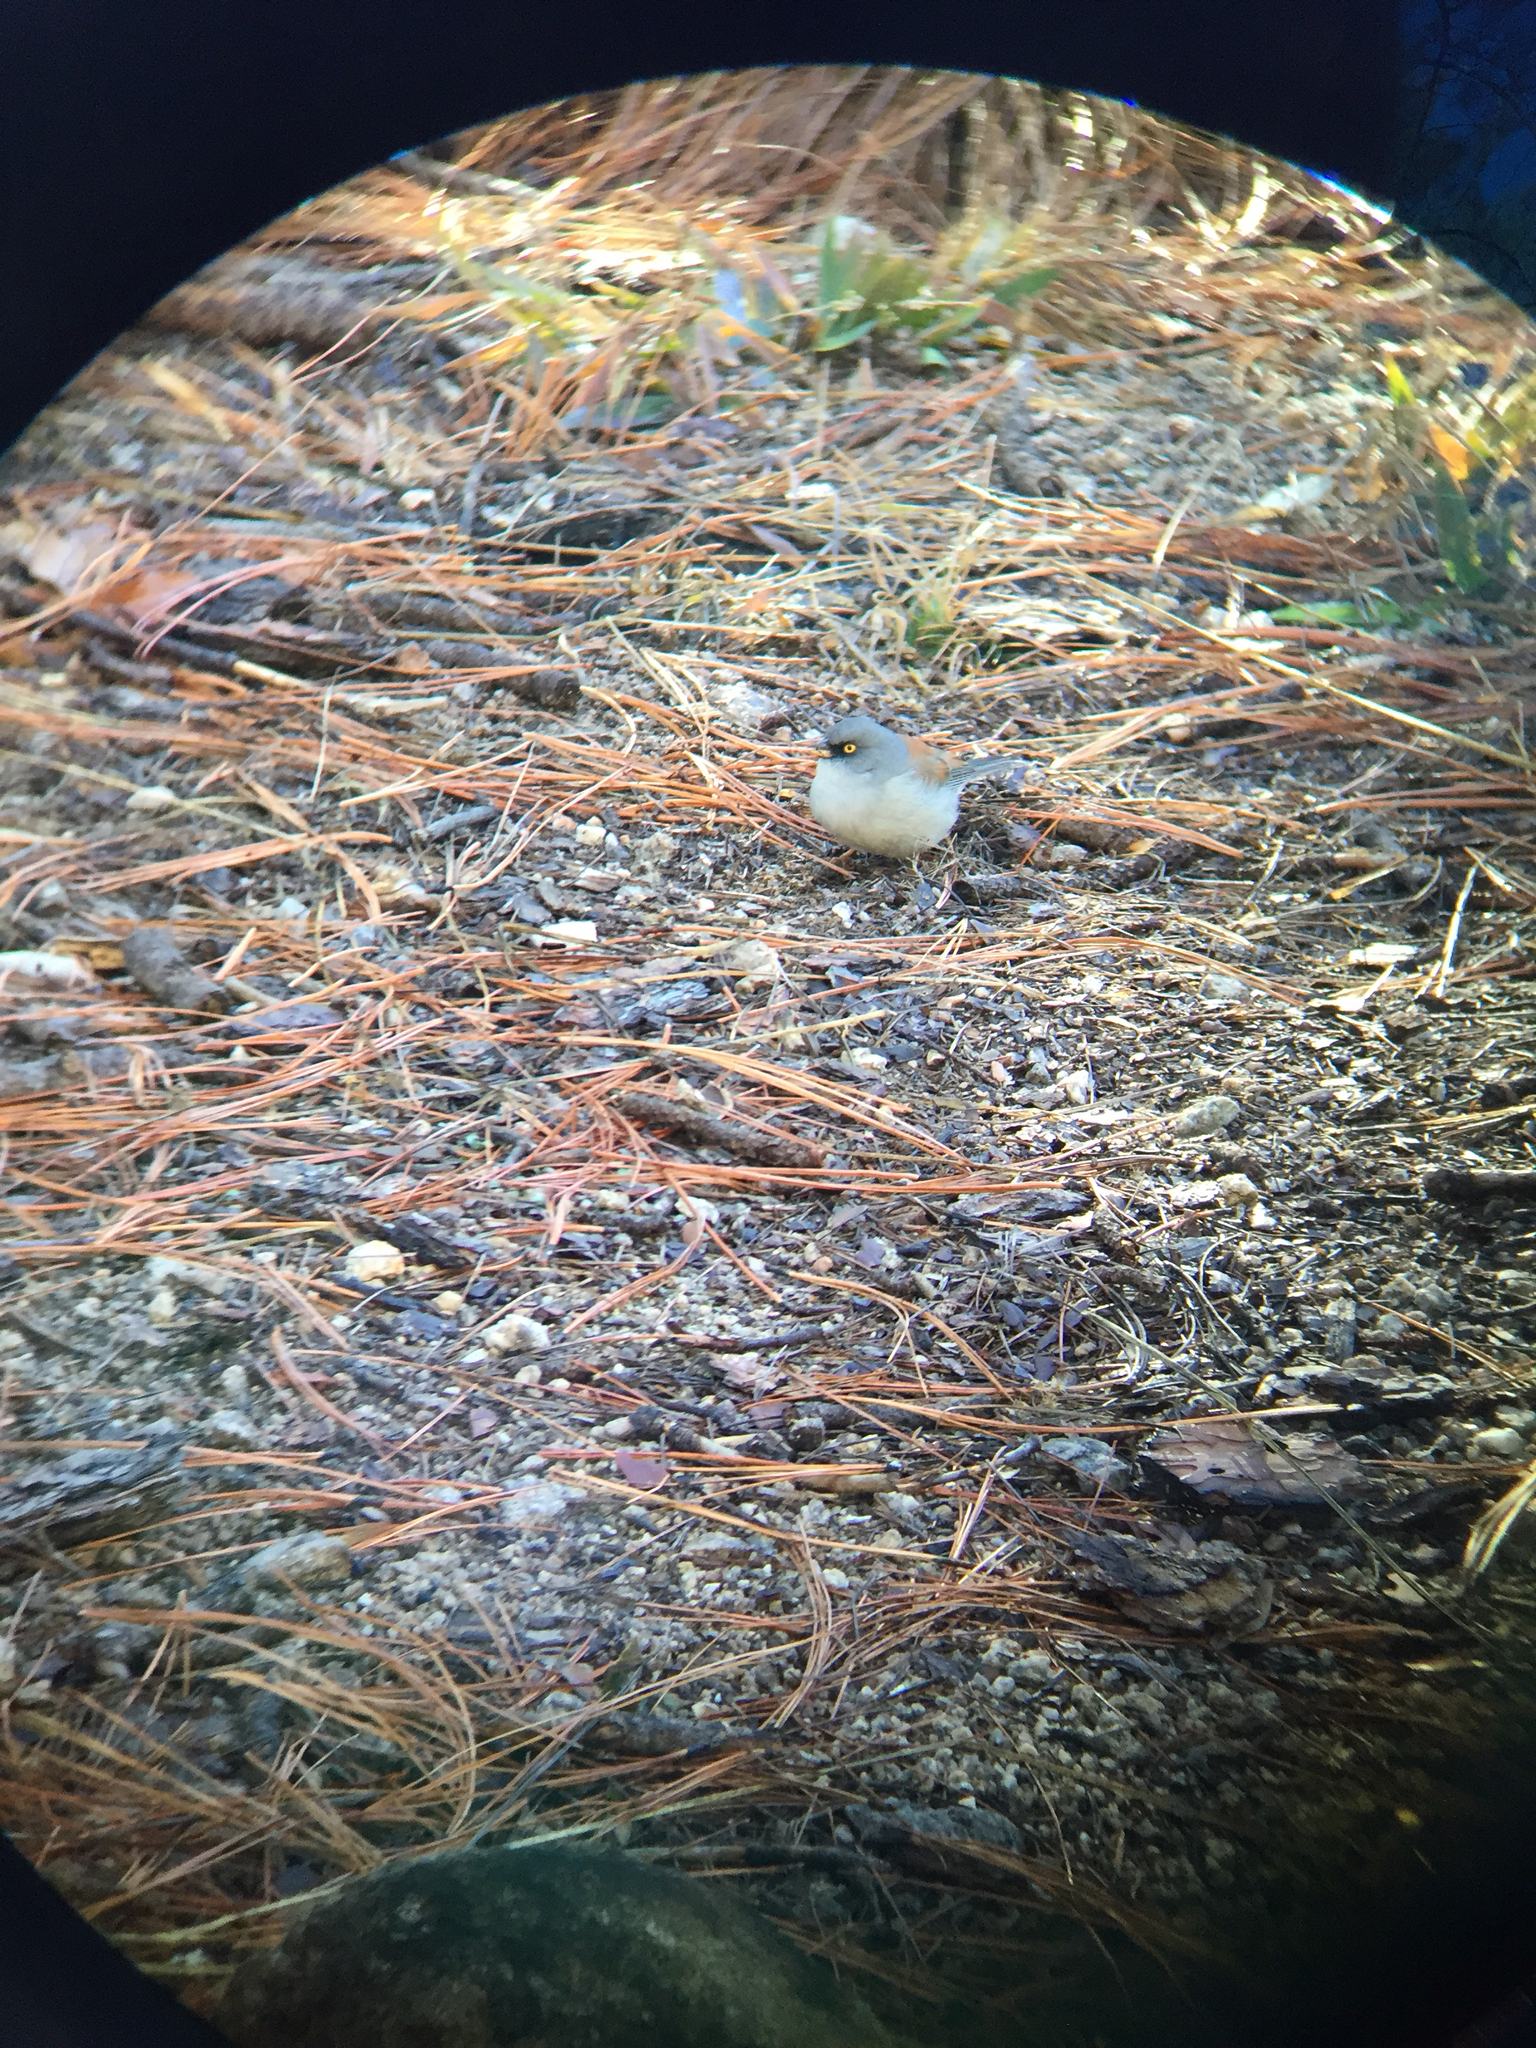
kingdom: Animalia
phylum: Chordata
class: Aves
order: Passeriformes
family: Passerellidae
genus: Junco
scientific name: Junco phaeonotus
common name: Yellow-eyed junco
